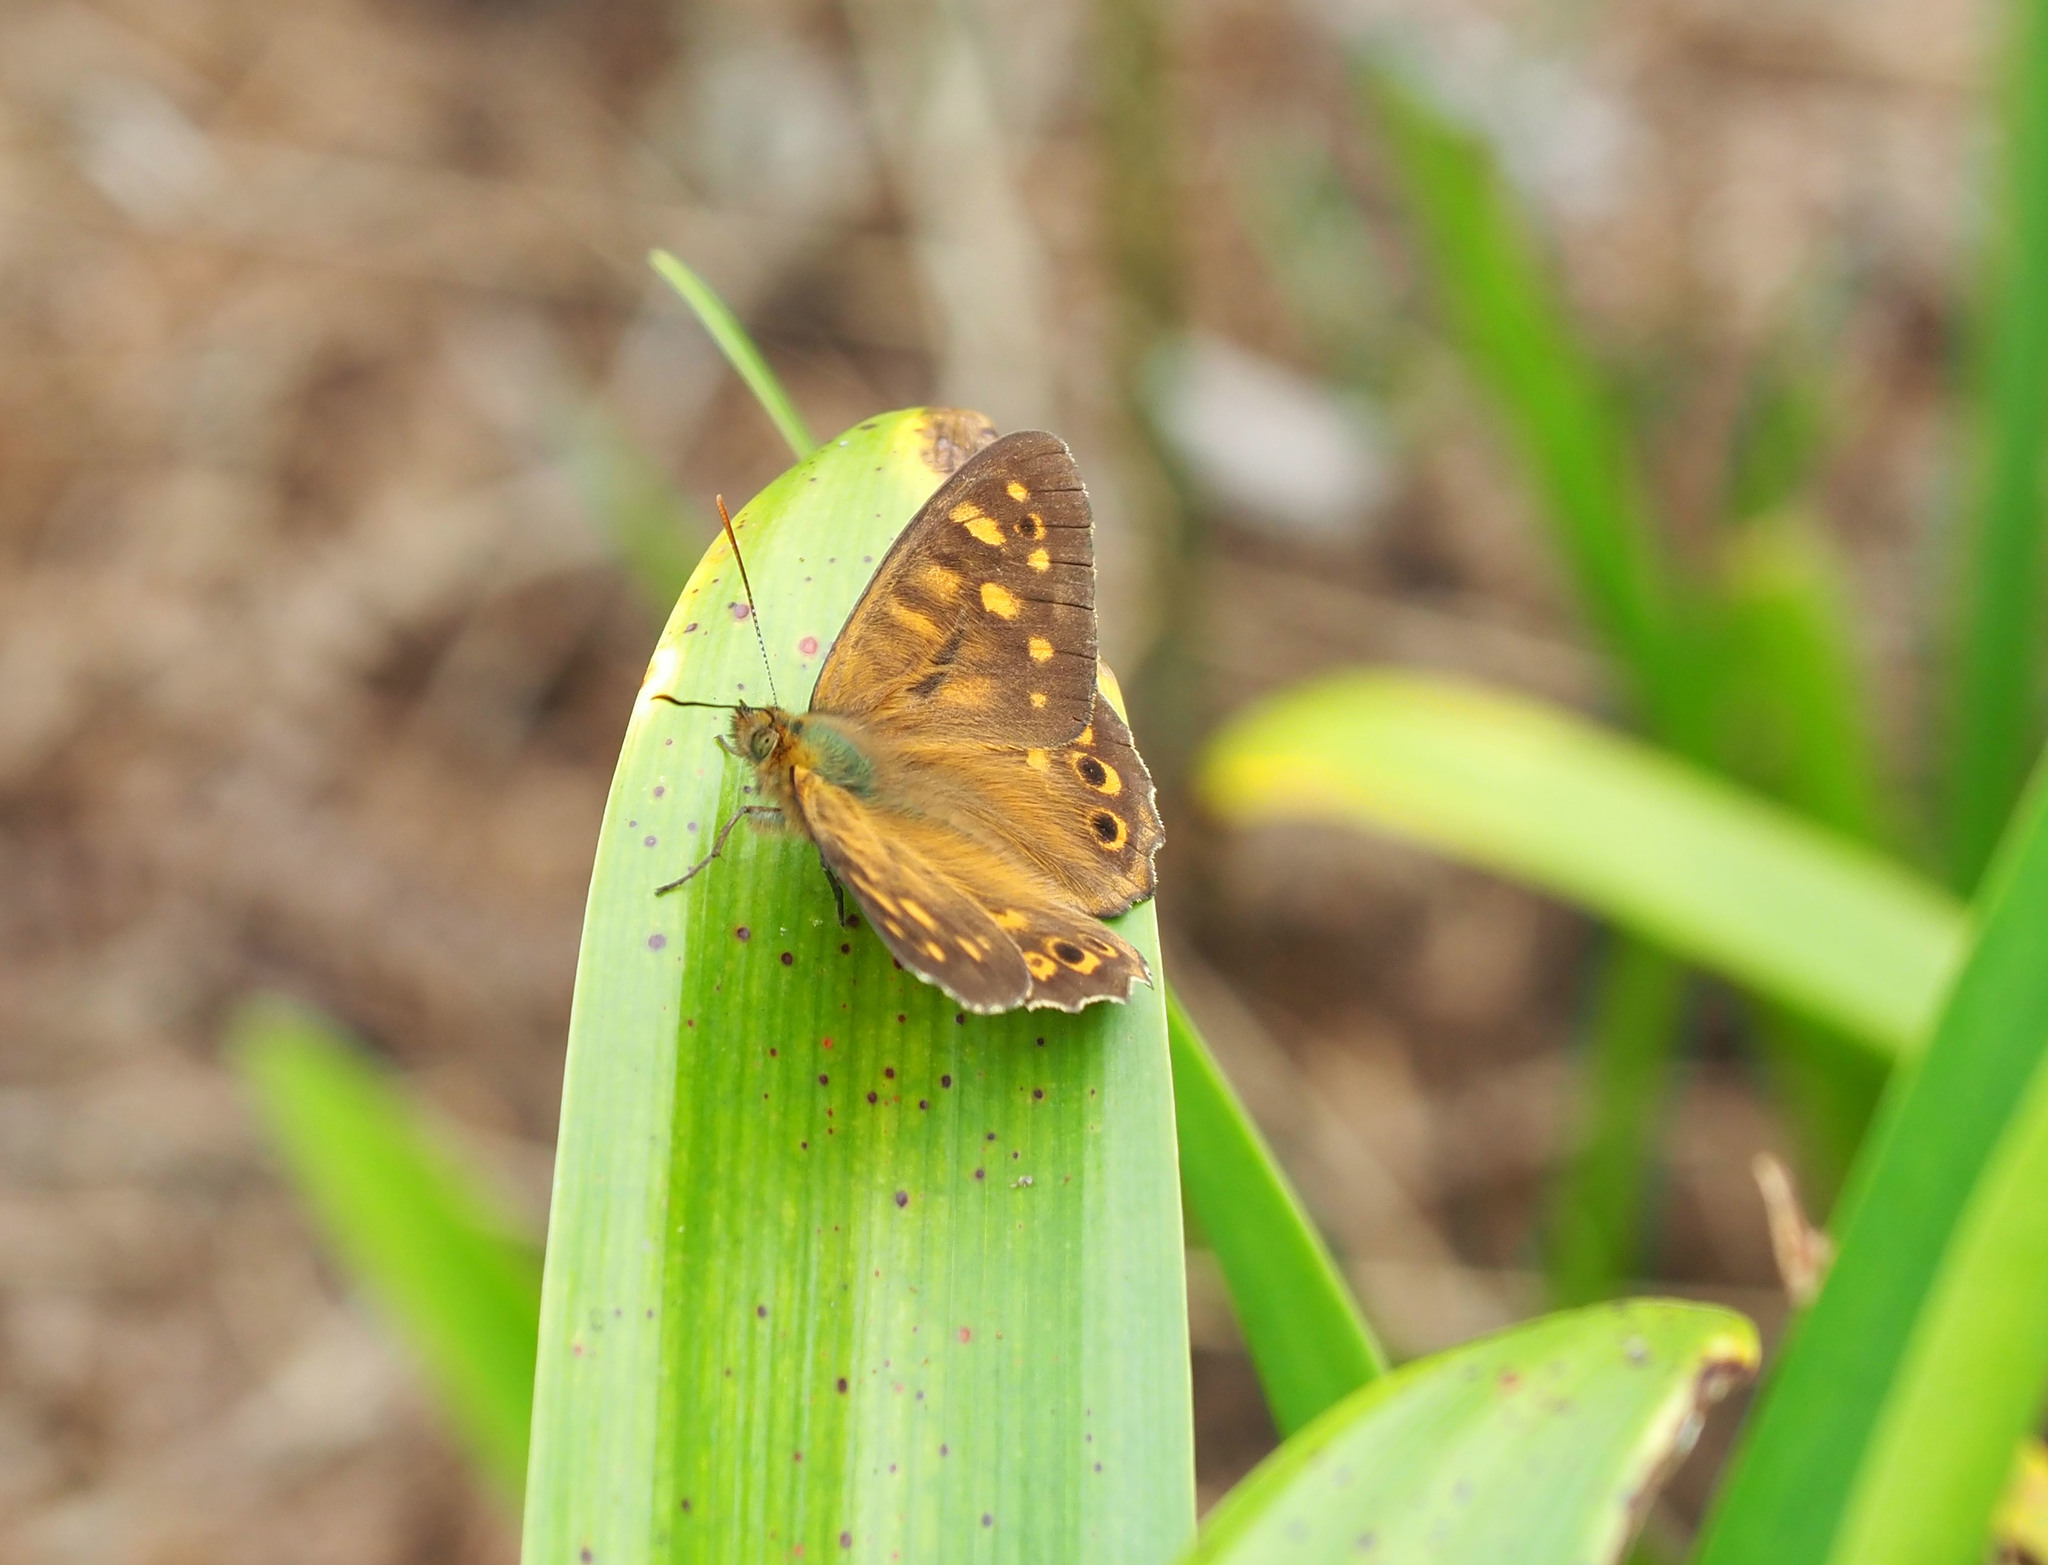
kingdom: Animalia
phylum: Arthropoda
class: Insecta
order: Lepidoptera
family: Nymphalidae
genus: Pararge
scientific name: Pararge
